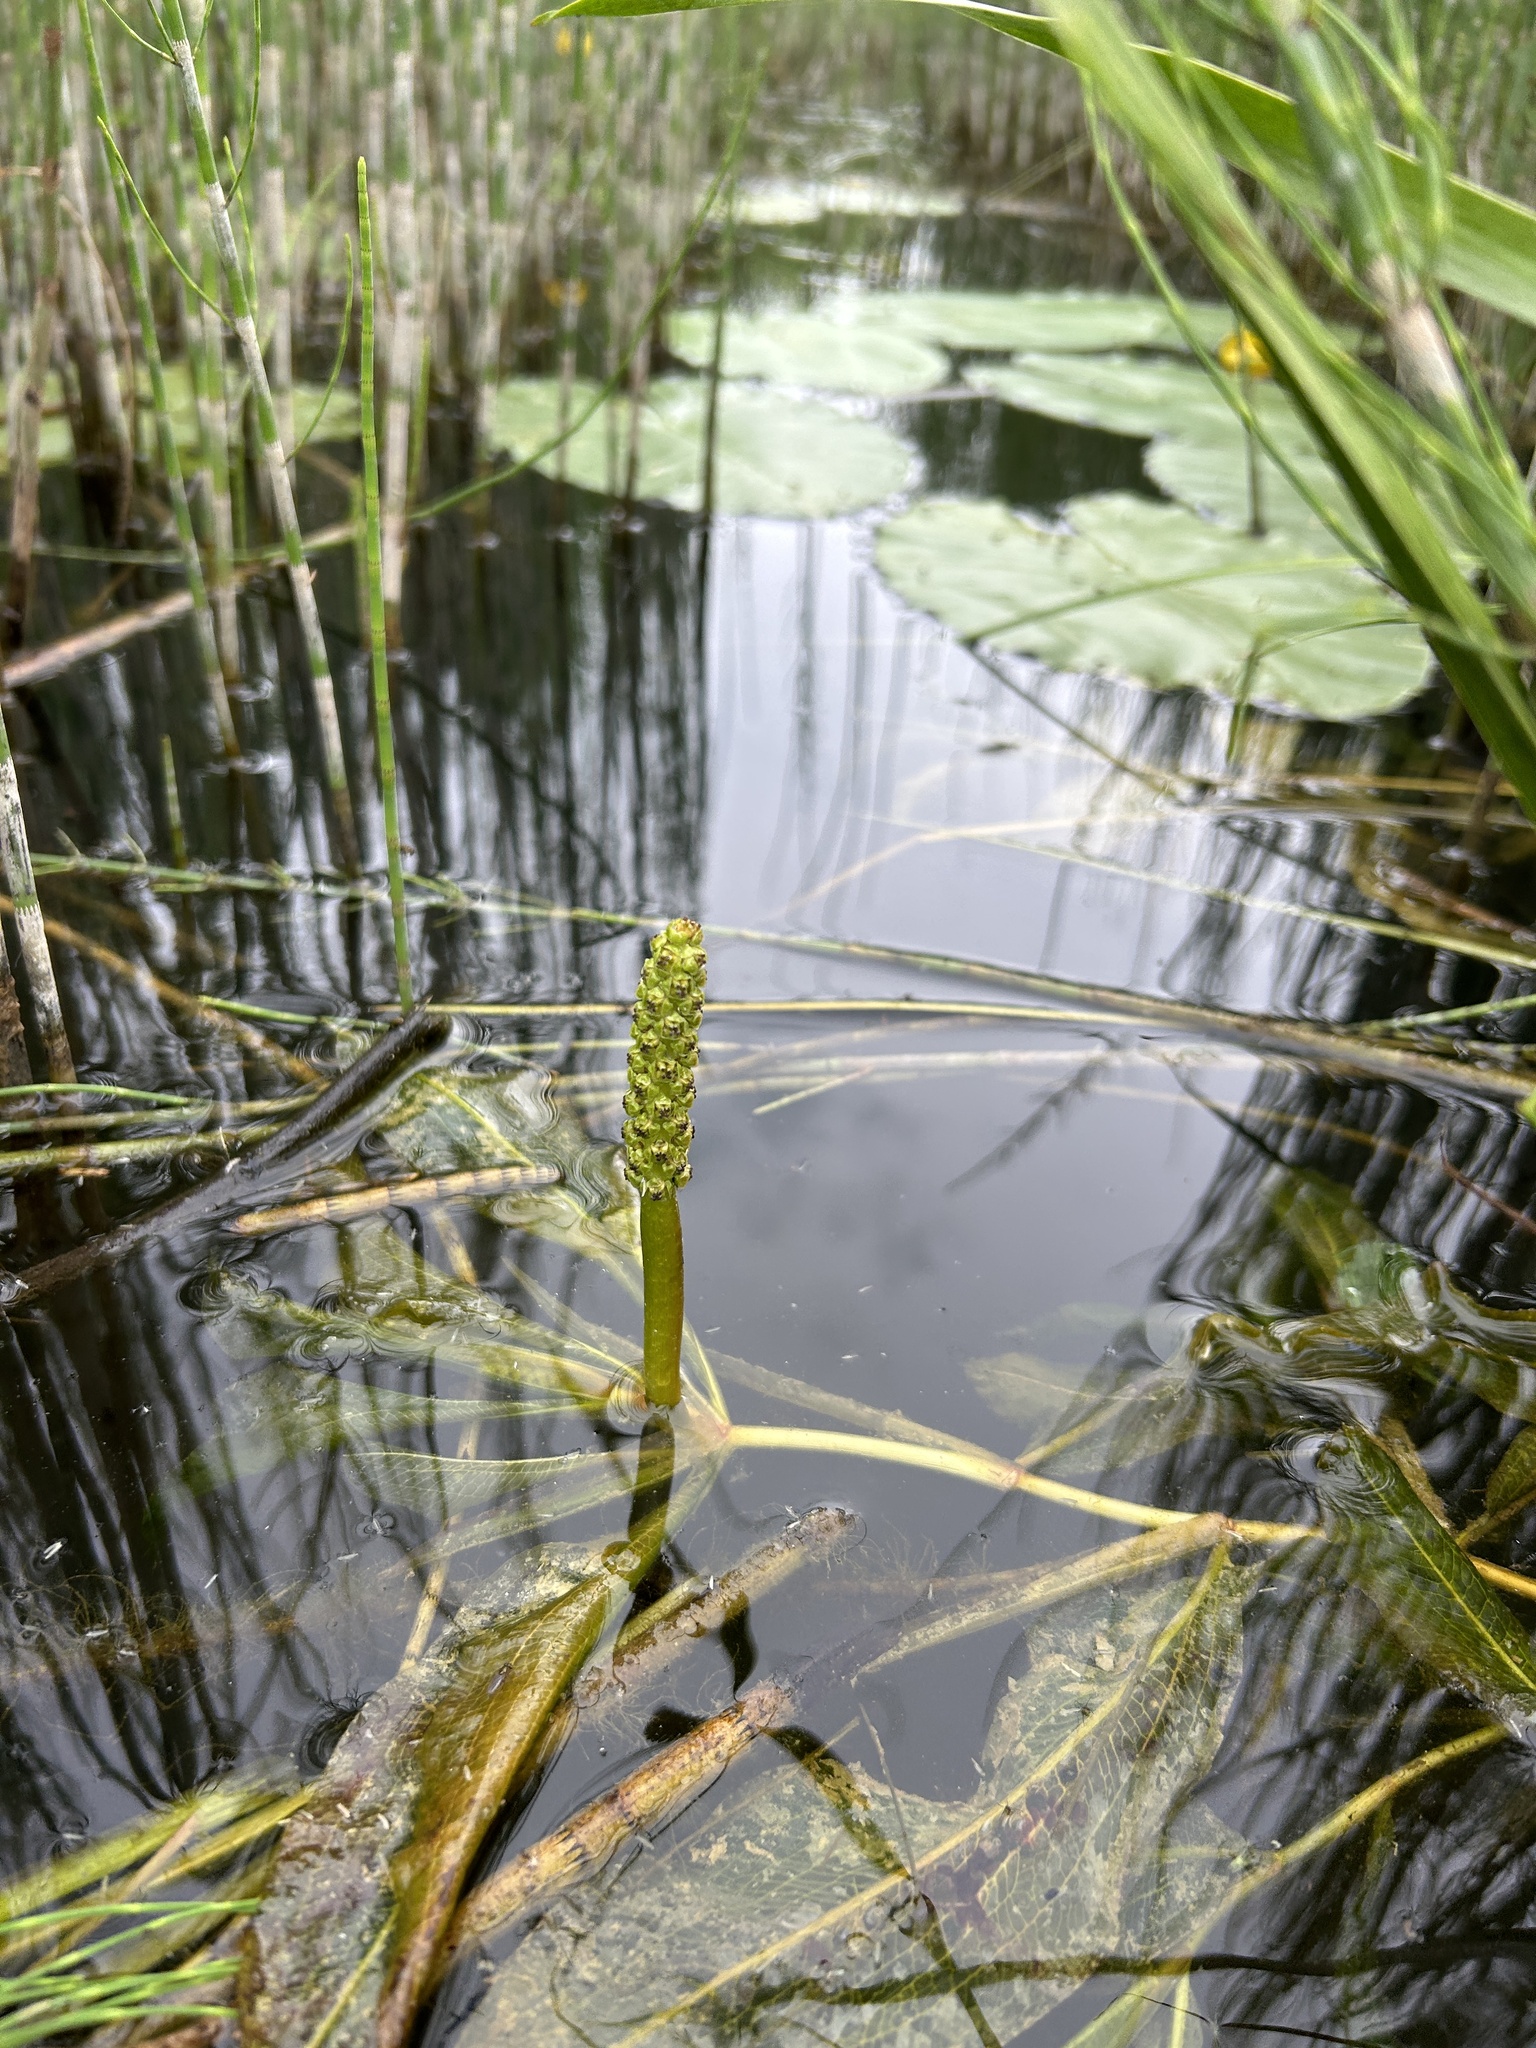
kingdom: Plantae
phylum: Tracheophyta
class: Liliopsida
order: Alismatales
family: Potamogetonaceae
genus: Potamogeton
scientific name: Potamogeton lucens
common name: Shining pondweed
